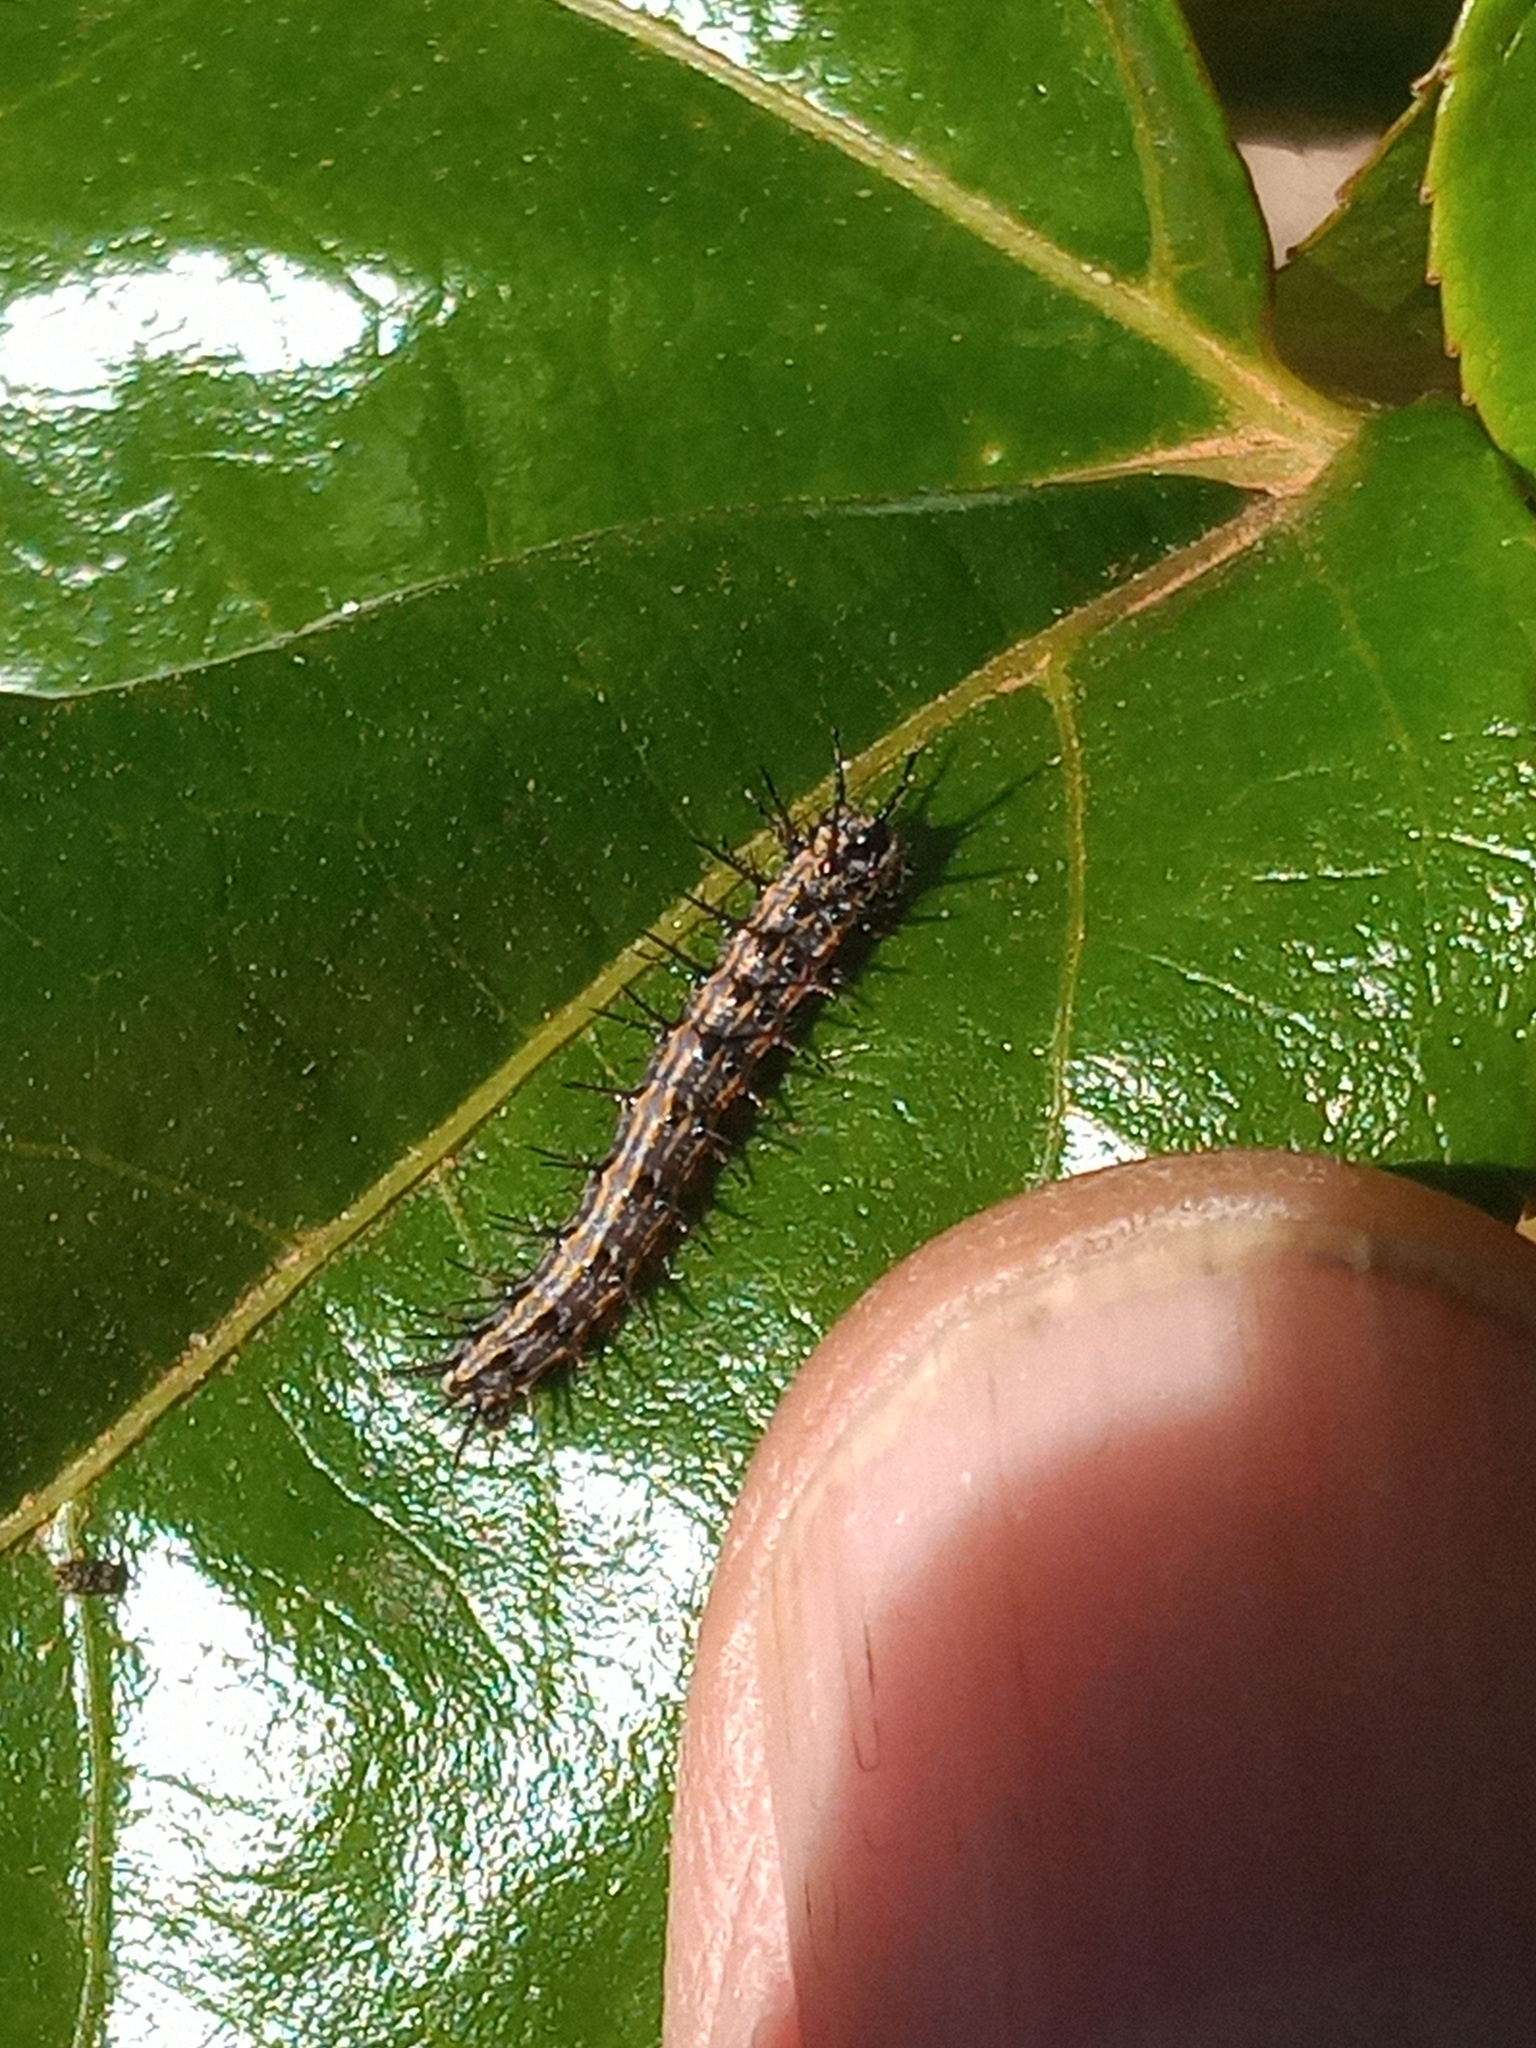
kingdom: Animalia
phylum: Arthropoda
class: Insecta
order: Lepidoptera
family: Nymphalidae
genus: Dione
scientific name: Dione vanillae
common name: Gulf fritillary
